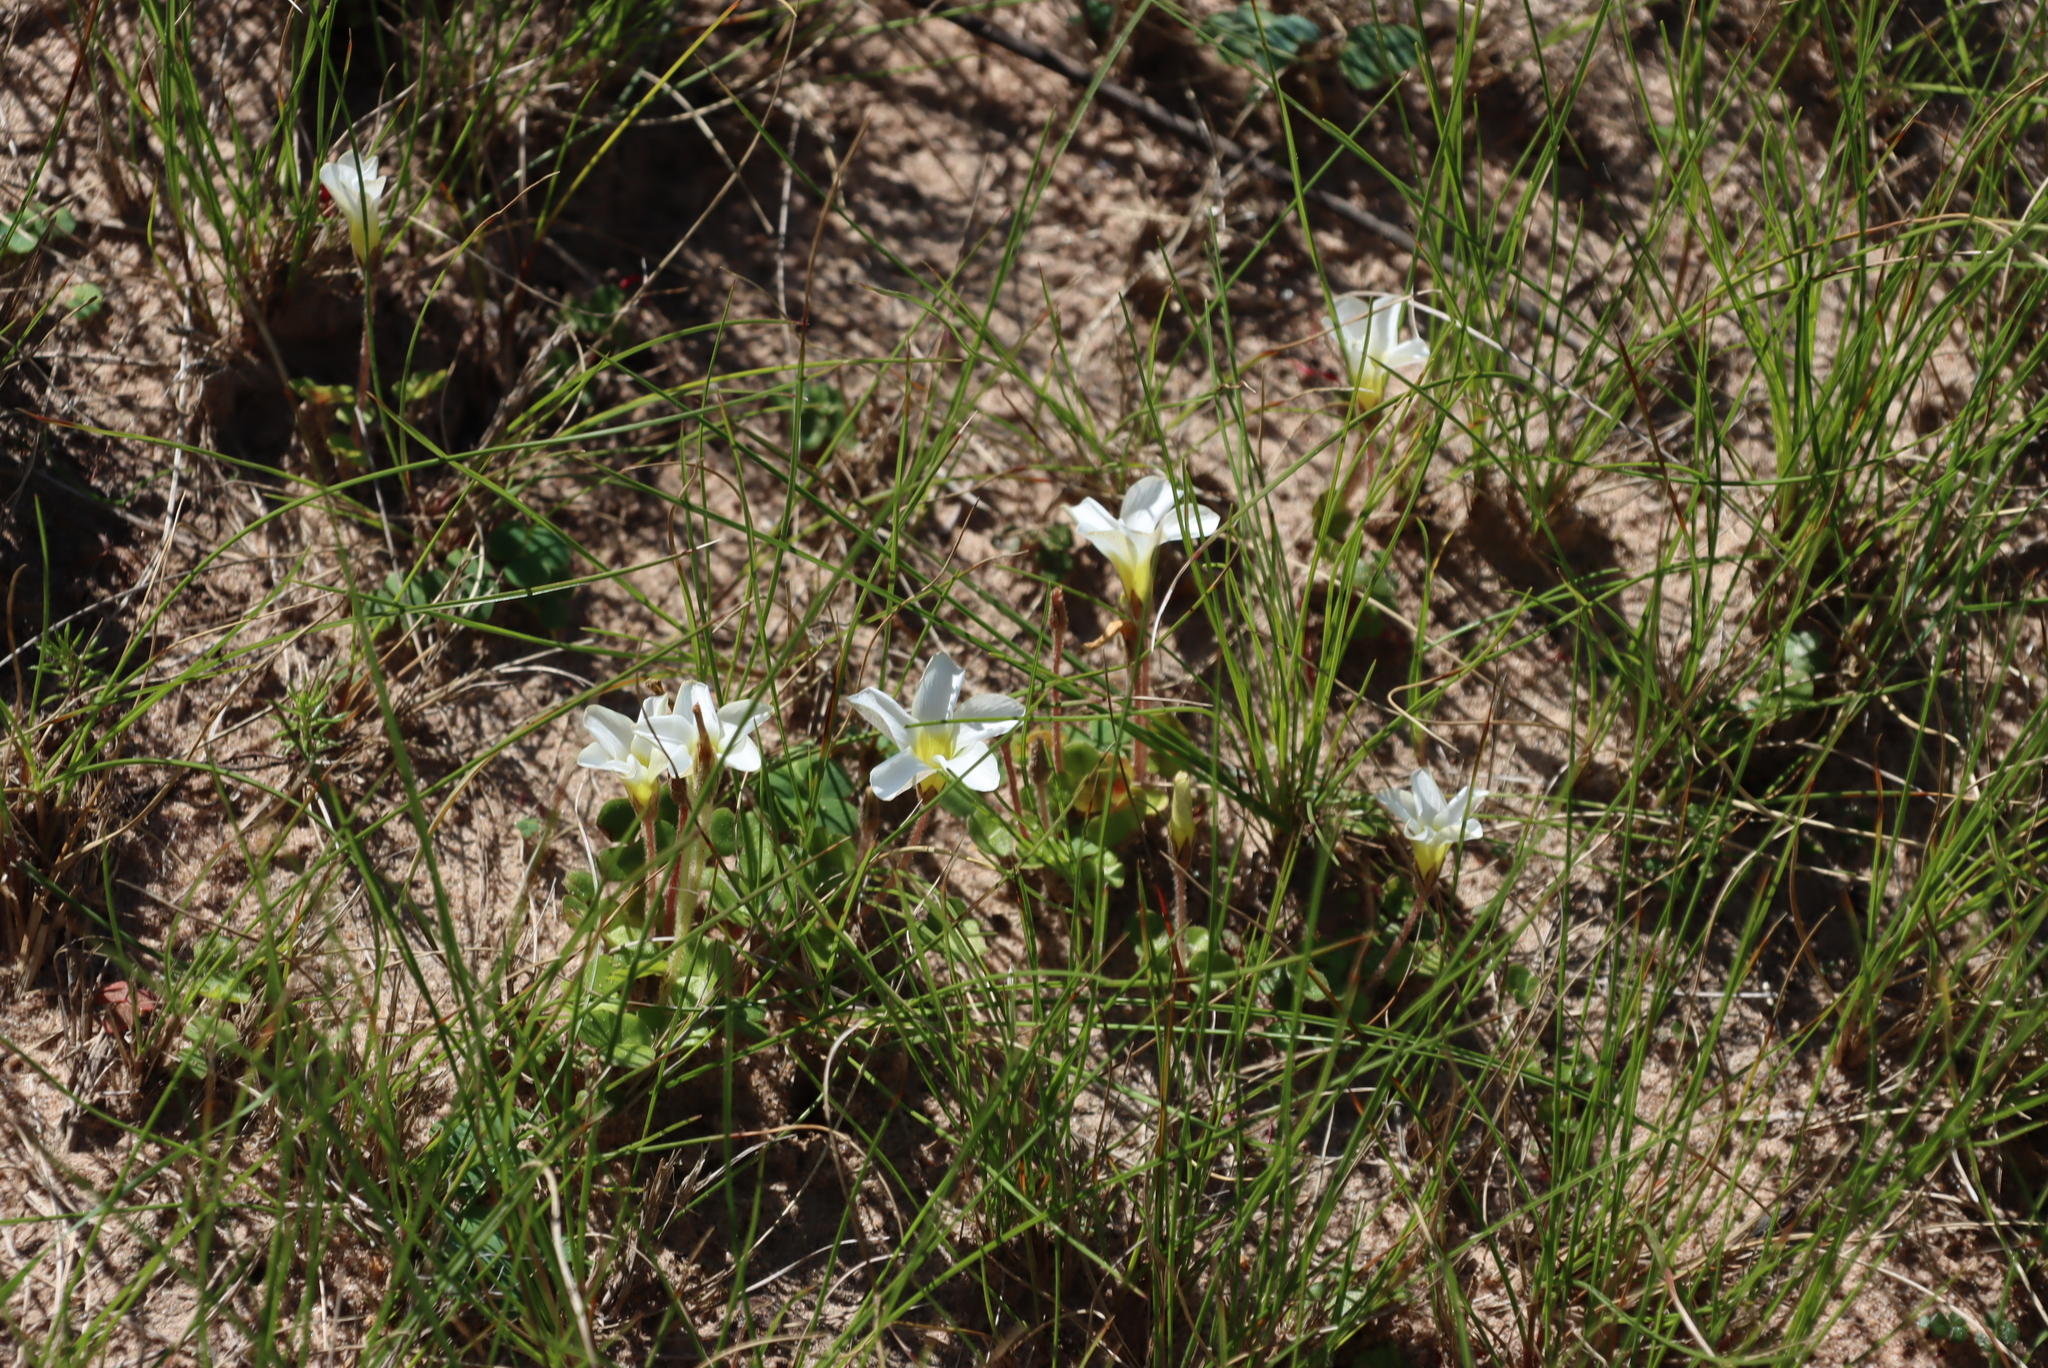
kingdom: Plantae
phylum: Tracheophyta
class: Magnoliopsida
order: Oxalidales
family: Oxalidaceae
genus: Oxalis
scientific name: Oxalis purpurea
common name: Purple woodsorrel
